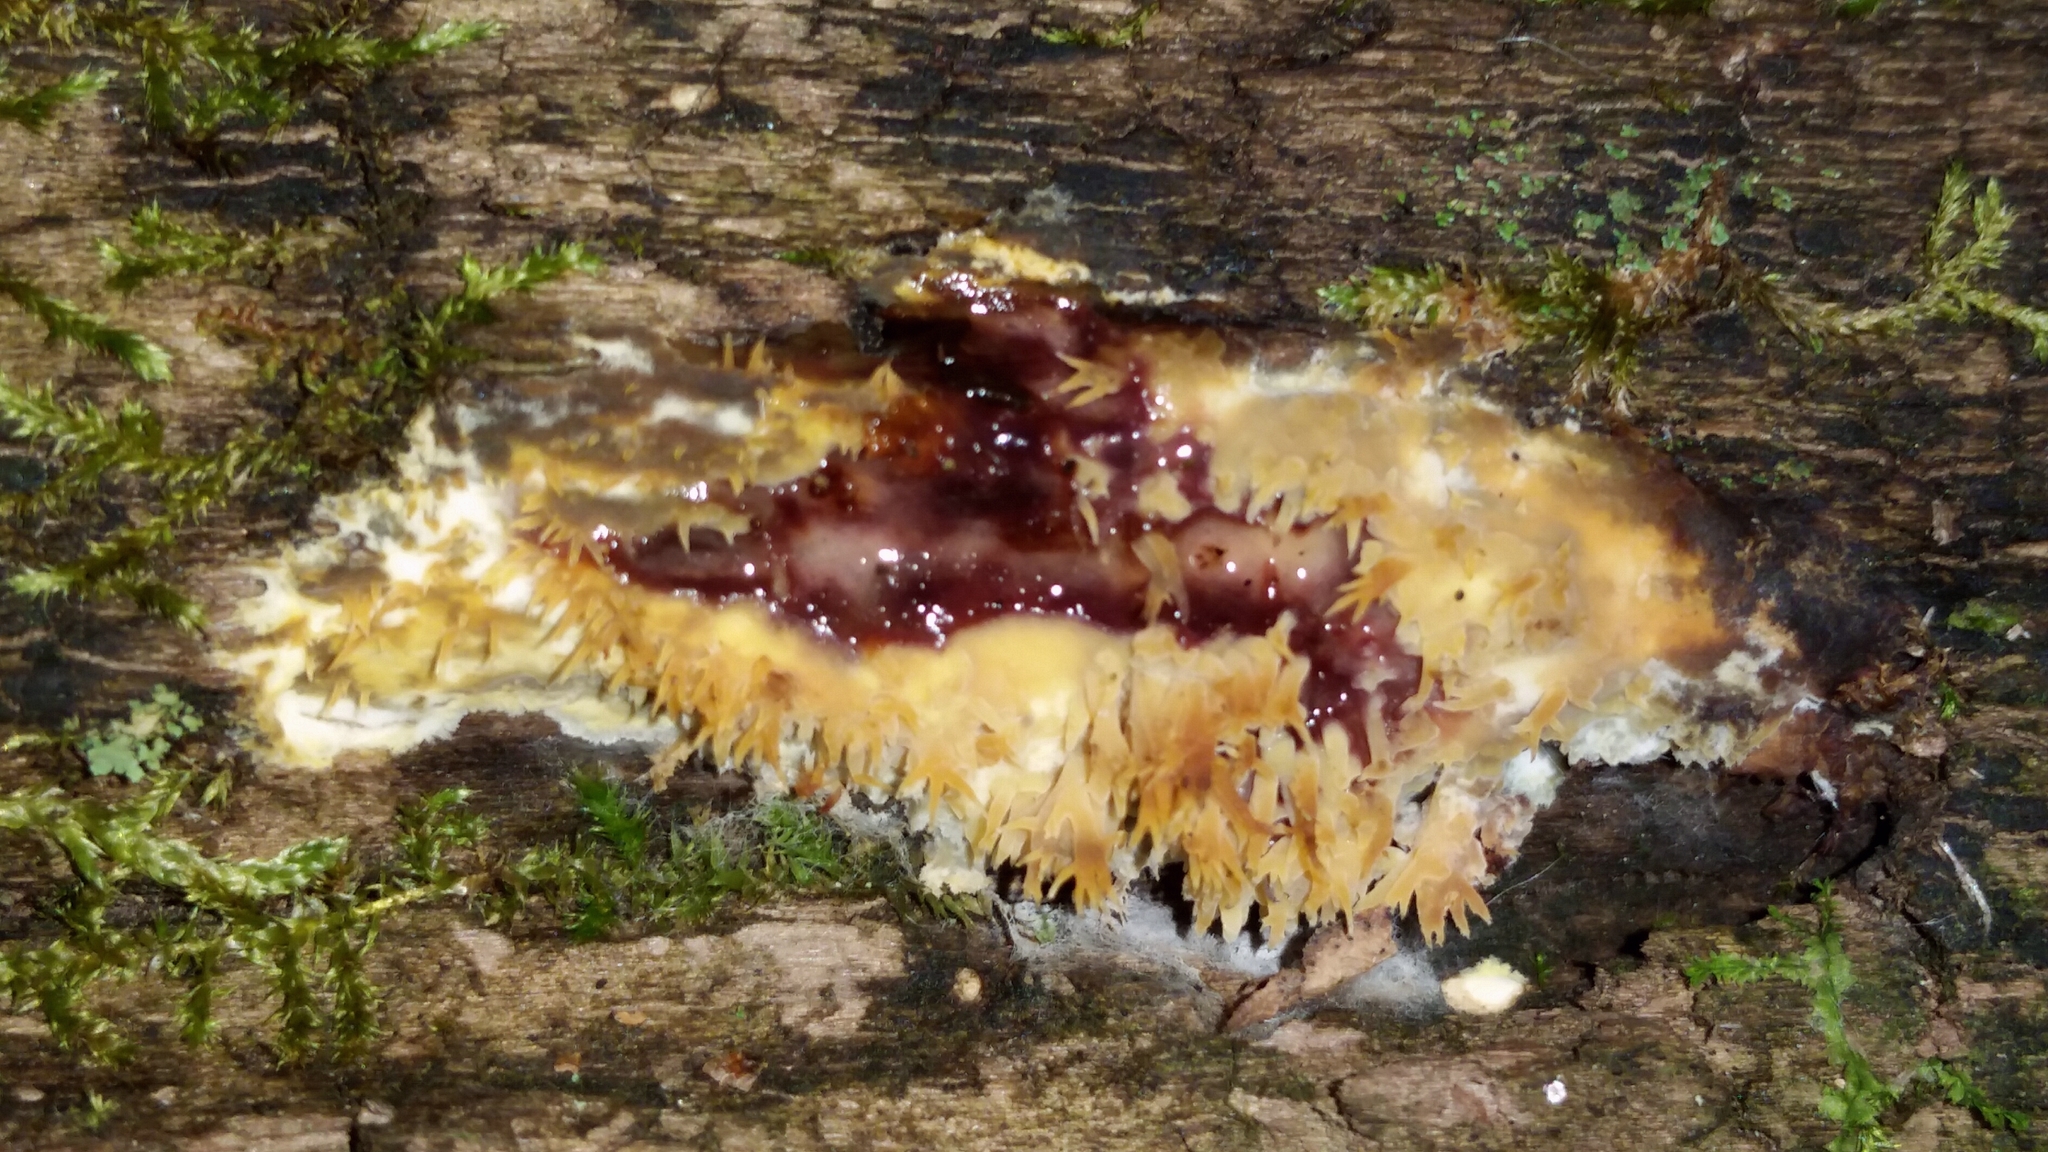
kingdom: Fungi
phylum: Basidiomycota
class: Agaricomycetes
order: Polyporales
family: Meruliaceae
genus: Mycoacia
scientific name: Mycoacia uda
